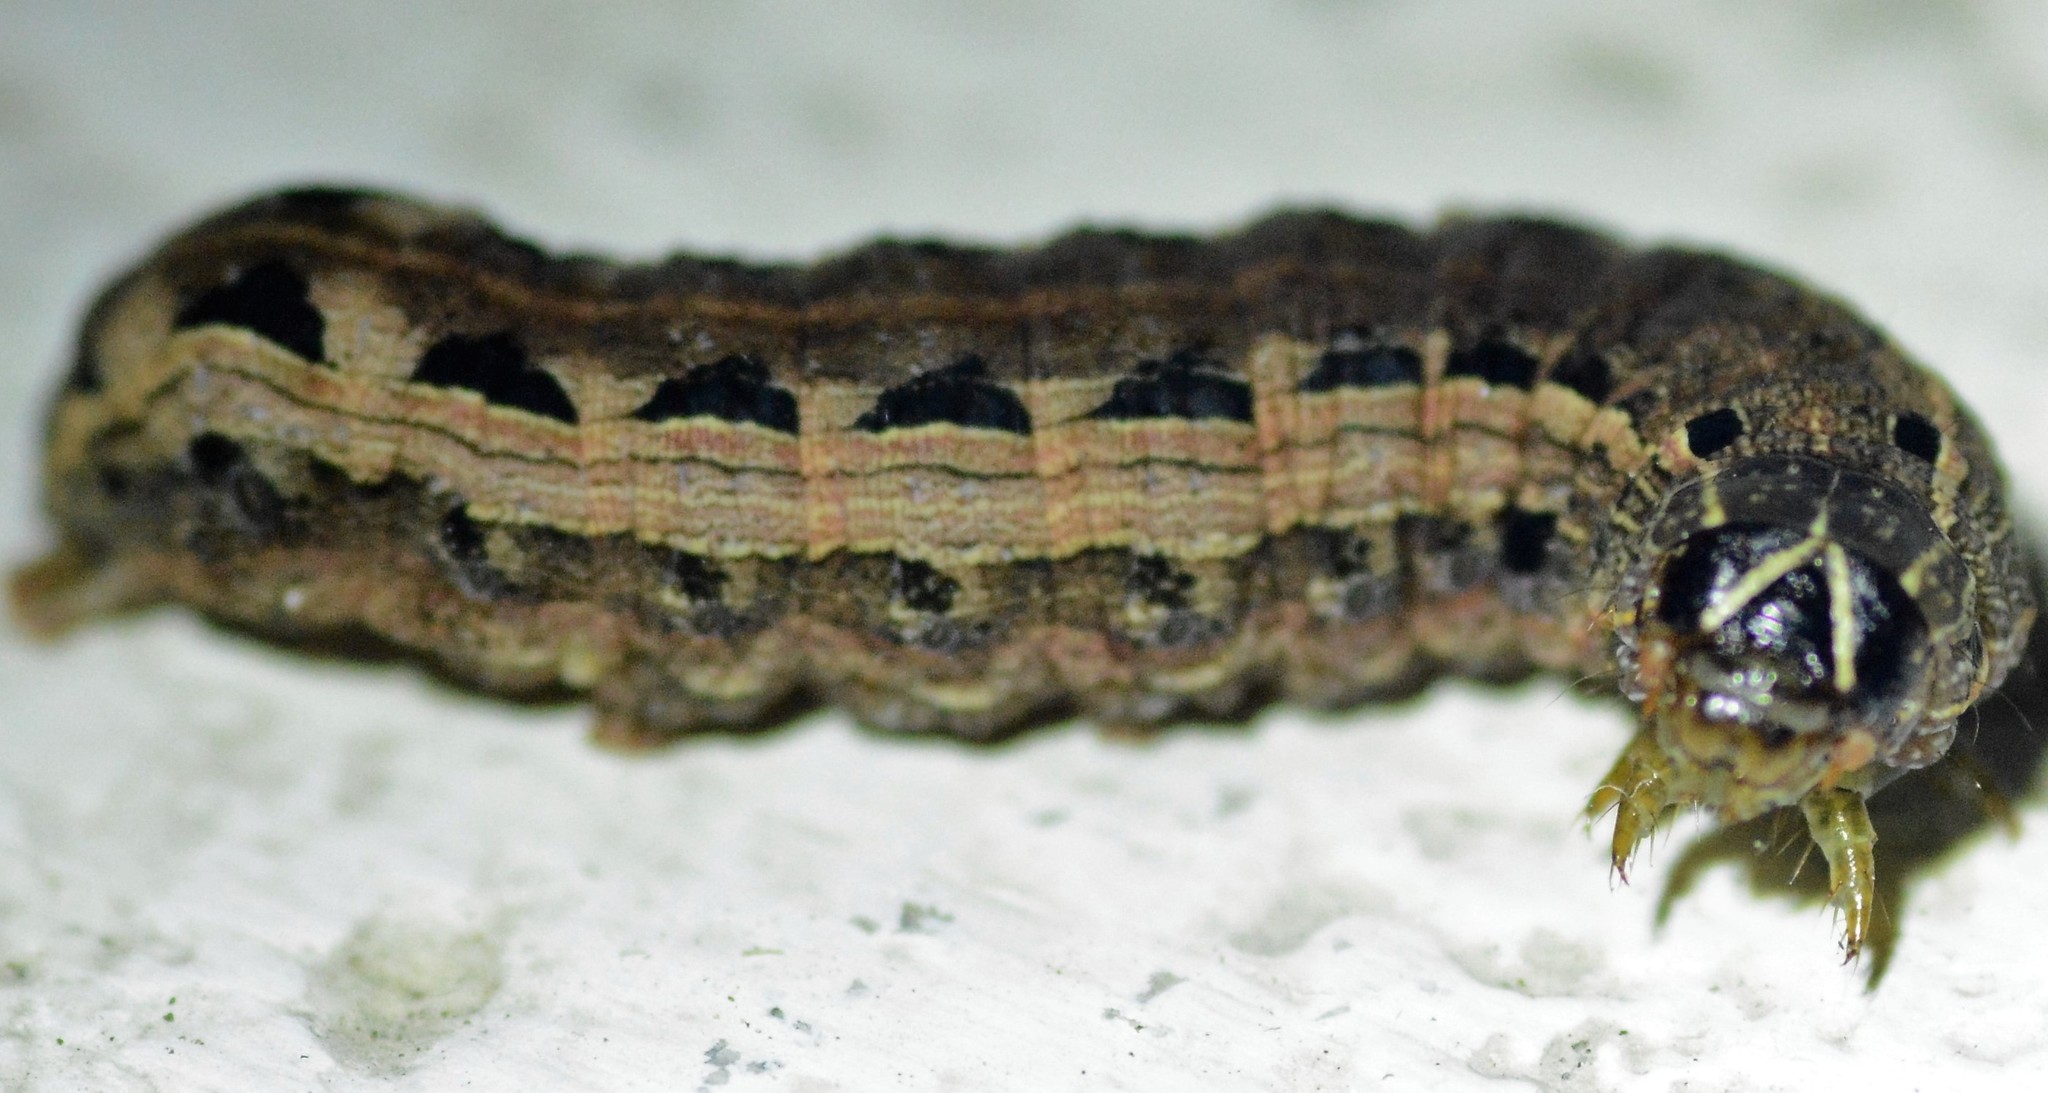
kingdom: Animalia
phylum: Arthropoda
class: Insecta
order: Lepidoptera
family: Noctuidae
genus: Spodoptera
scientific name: Spodoptera ornithogalli
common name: Yellow-striped armyworm
